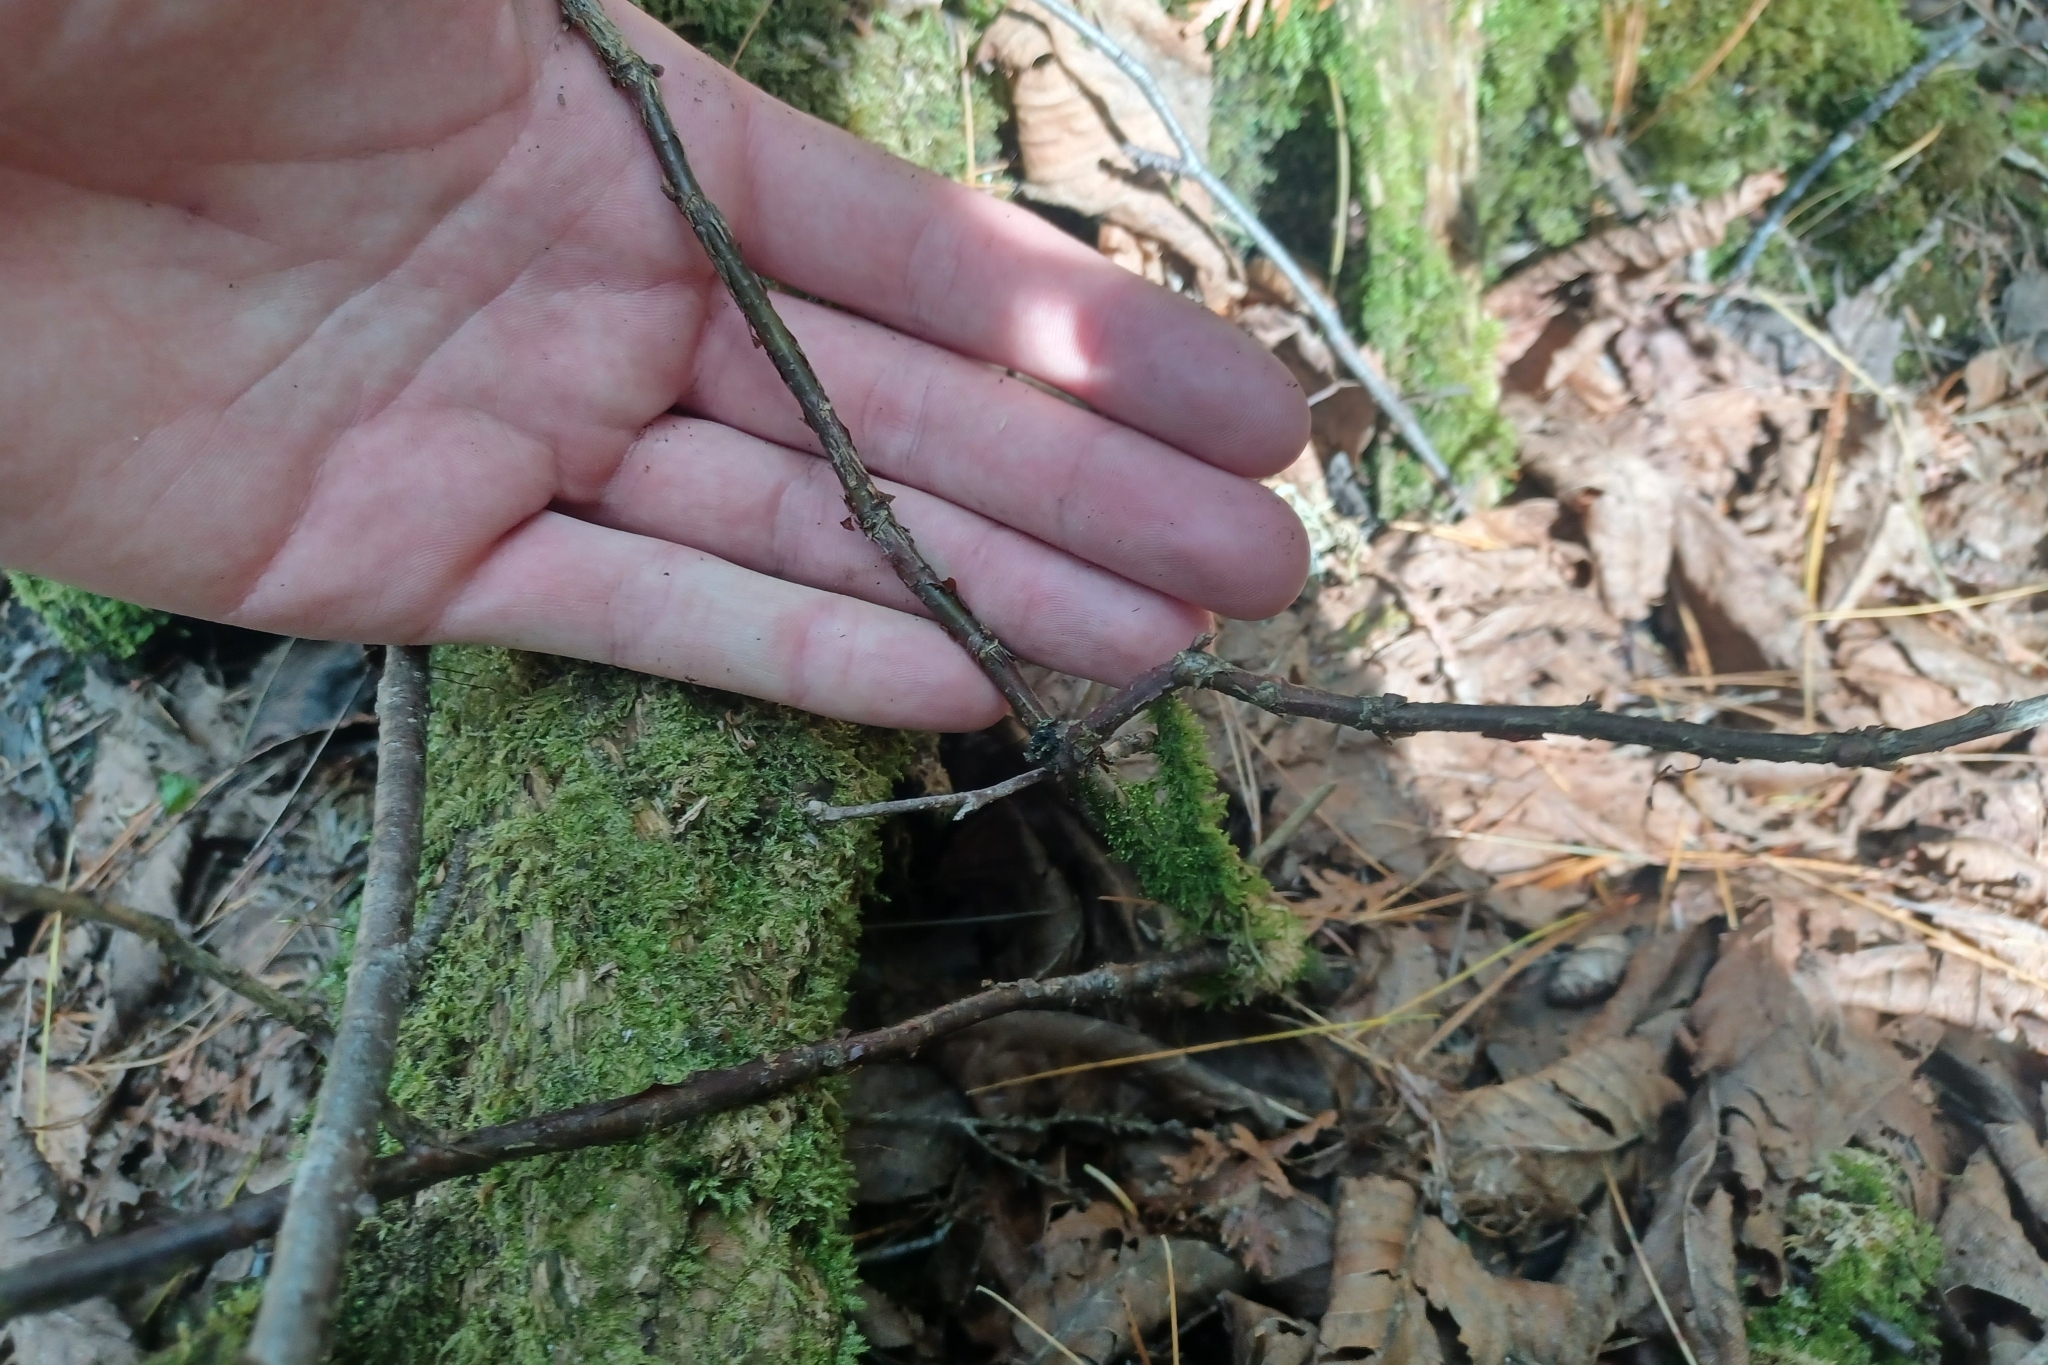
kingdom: Plantae
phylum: Tracheophyta
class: Magnoliopsida
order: Saxifragales
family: Grossulariaceae
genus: Ribes
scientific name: Ribes triste
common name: Swamp red currant
